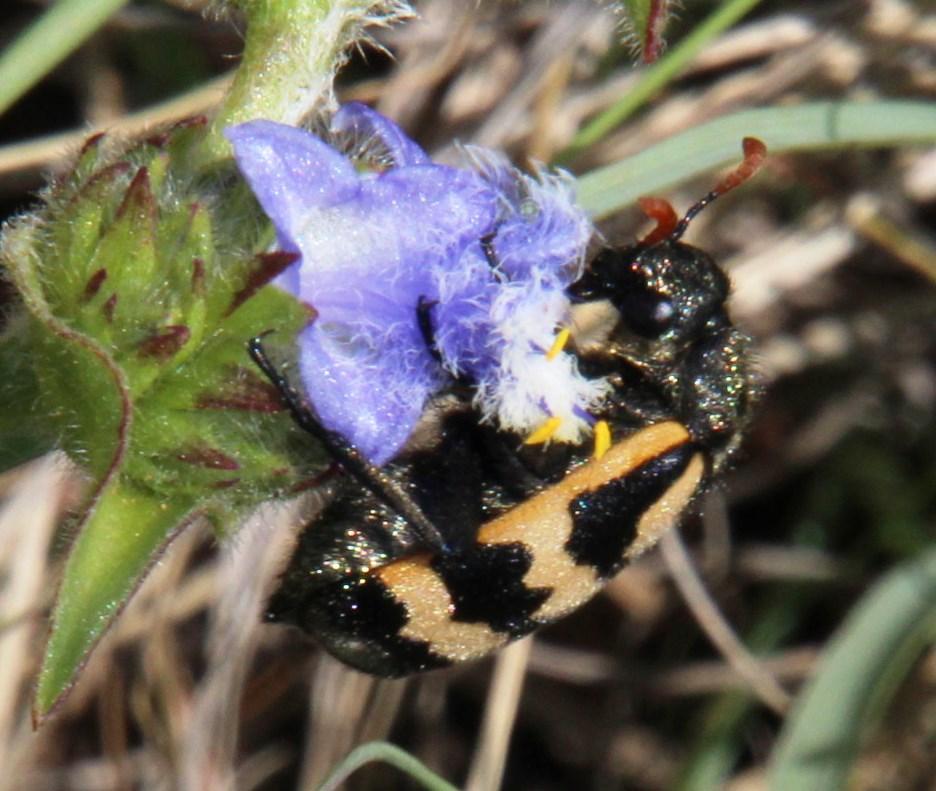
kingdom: Plantae
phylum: Tracheophyta
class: Liliopsida
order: Commelinales
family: Commelinaceae
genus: Cyanotis
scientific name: Cyanotis speciosa
